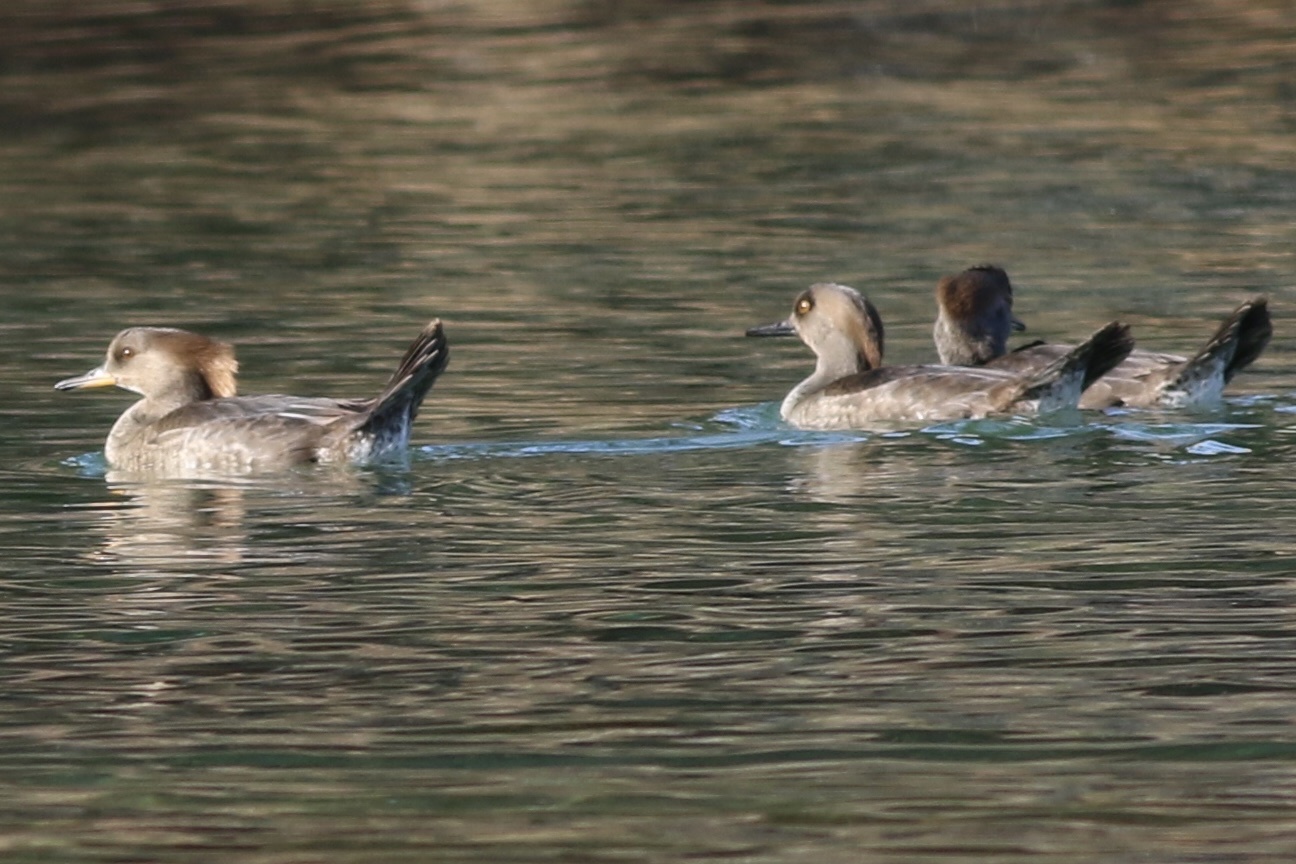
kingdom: Animalia
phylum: Chordata
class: Aves
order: Anseriformes
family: Anatidae
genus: Lophodytes
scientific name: Lophodytes cucullatus
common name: Hooded merganser
